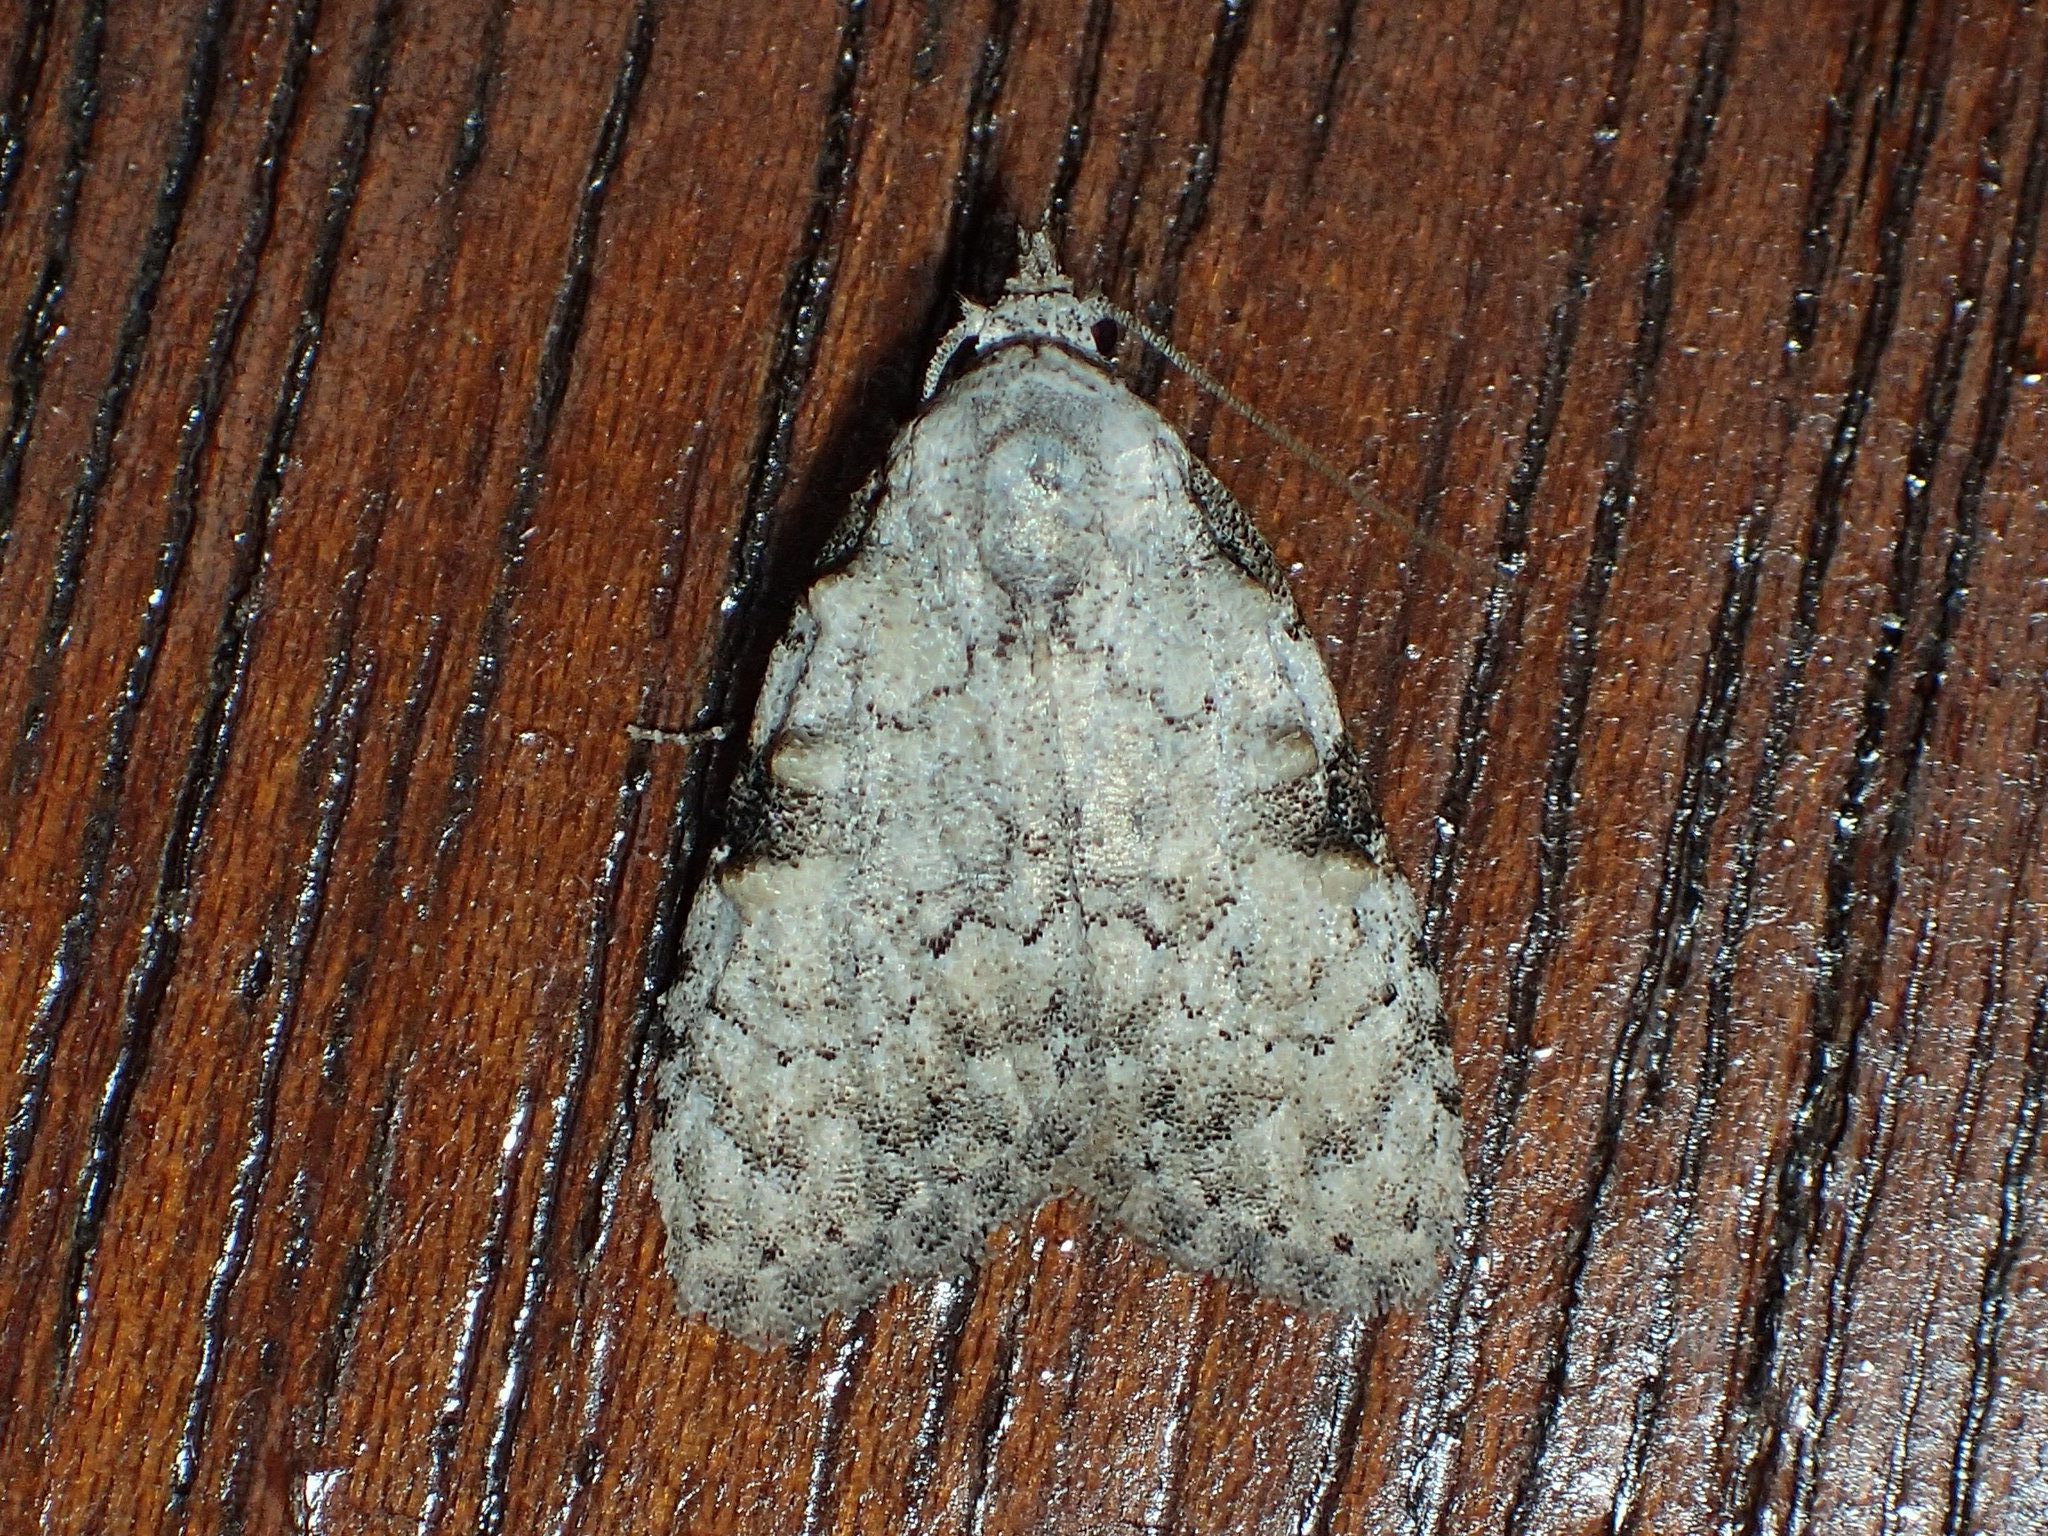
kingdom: Animalia
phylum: Arthropoda
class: Insecta
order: Lepidoptera
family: Nolidae
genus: Meganola
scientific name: Meganola minuscula
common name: Confused meganola moth
